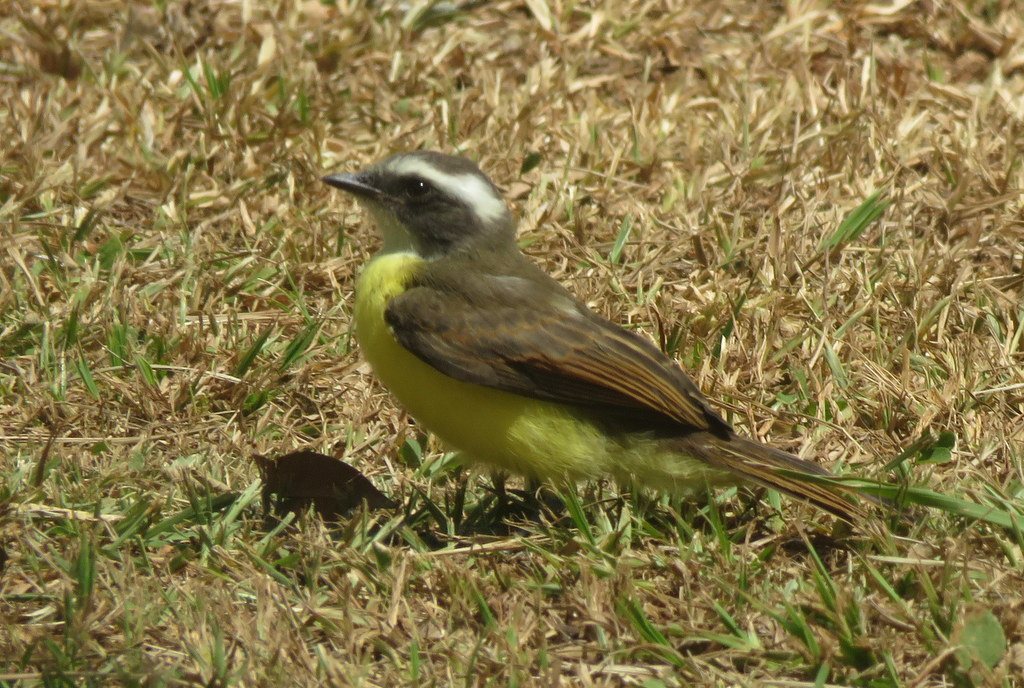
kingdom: Animalia
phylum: Chordata
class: Aves
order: Passeriformes
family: Tyrannidae
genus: Myiozetetes
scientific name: Myiozetetes similis
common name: Social flycatcher
